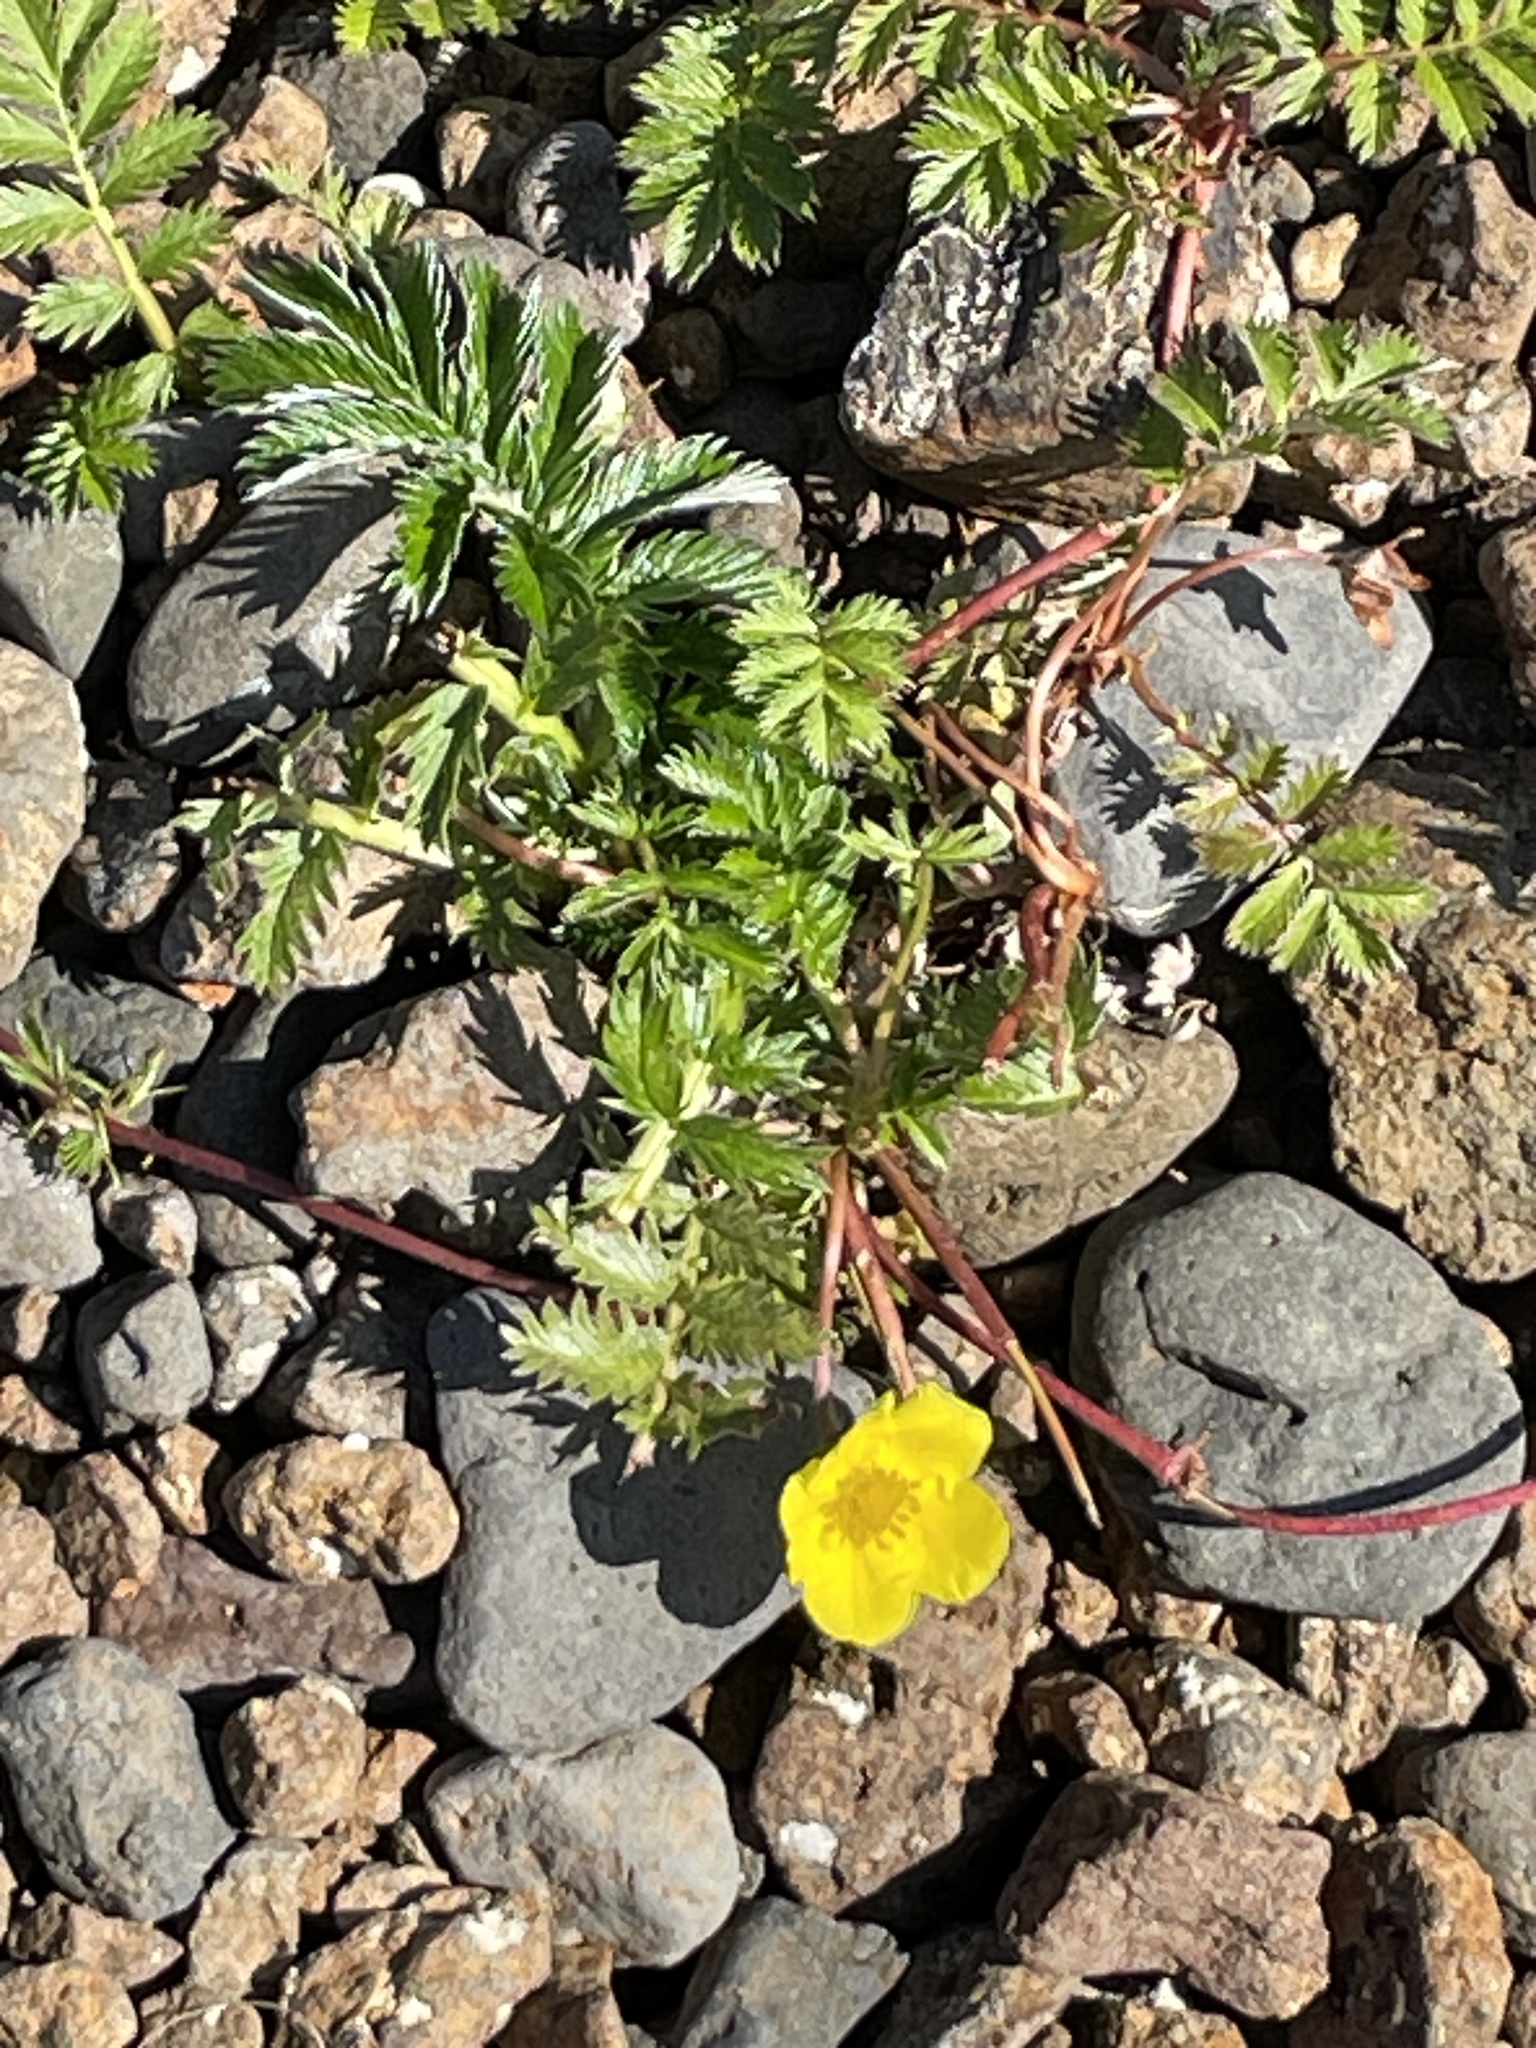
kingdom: Plantae
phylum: Tracheophyta
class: Magnoliopsida
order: Rosales
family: Rosaceae
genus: Argentina
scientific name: Argentina anserina
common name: Common silverweed
